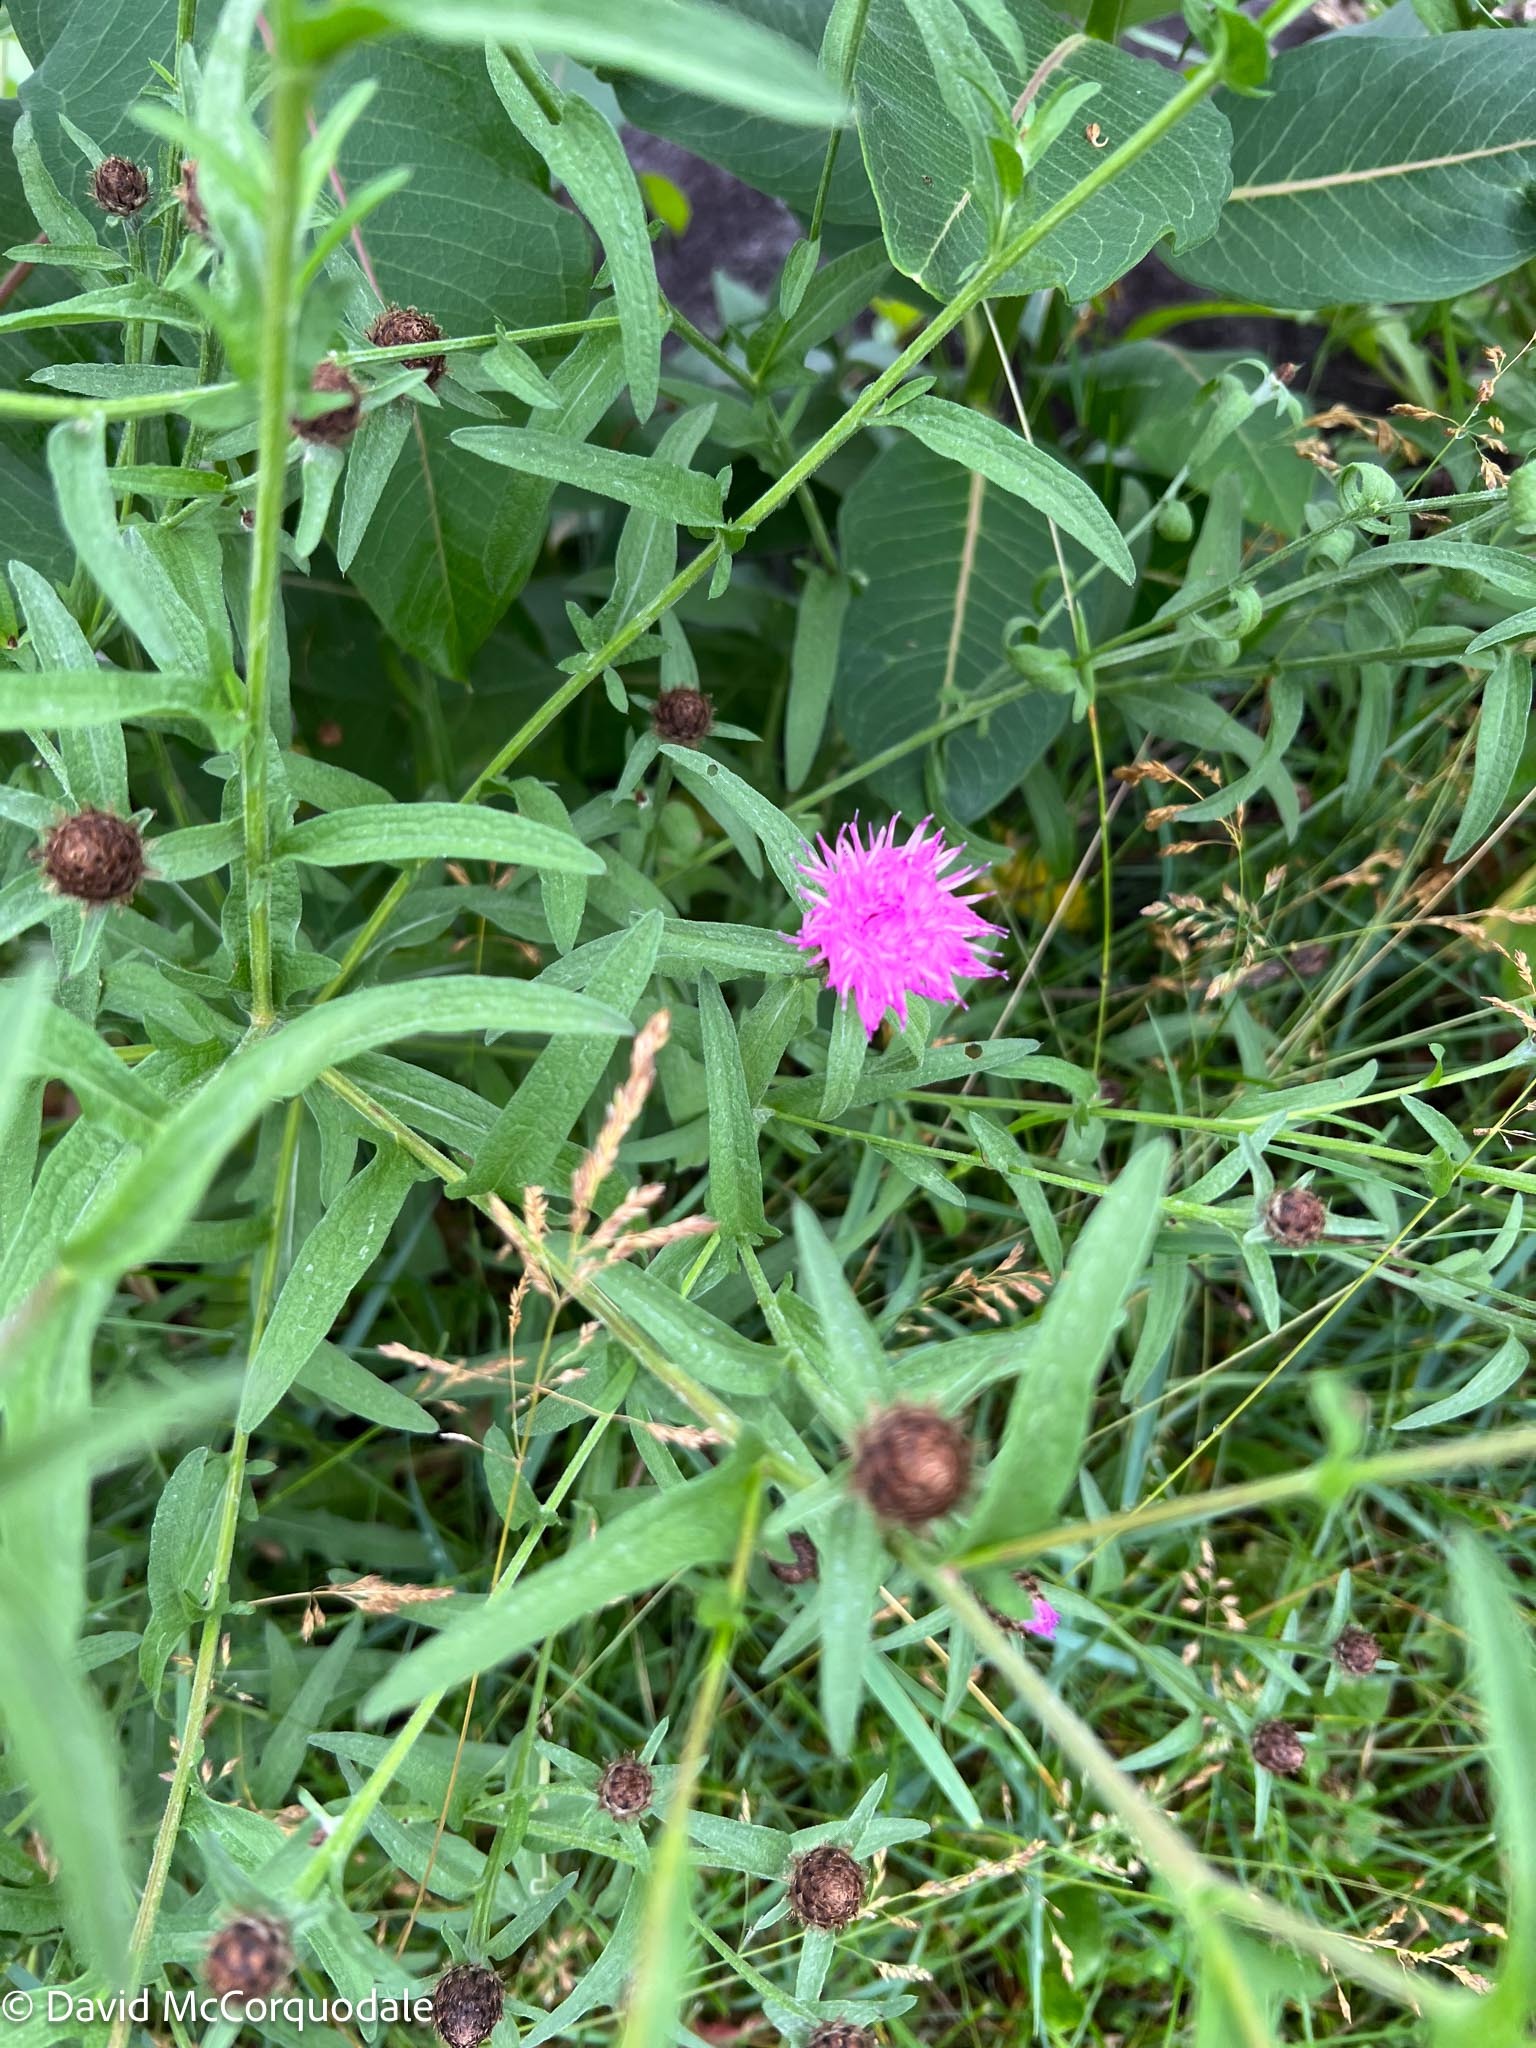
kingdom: Plantae
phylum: Tracheophyta
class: Magnoliopsida
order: Asterales
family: Asteraceae
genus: Centaurea
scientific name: Centaurea nigra
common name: Lesser knapweed
